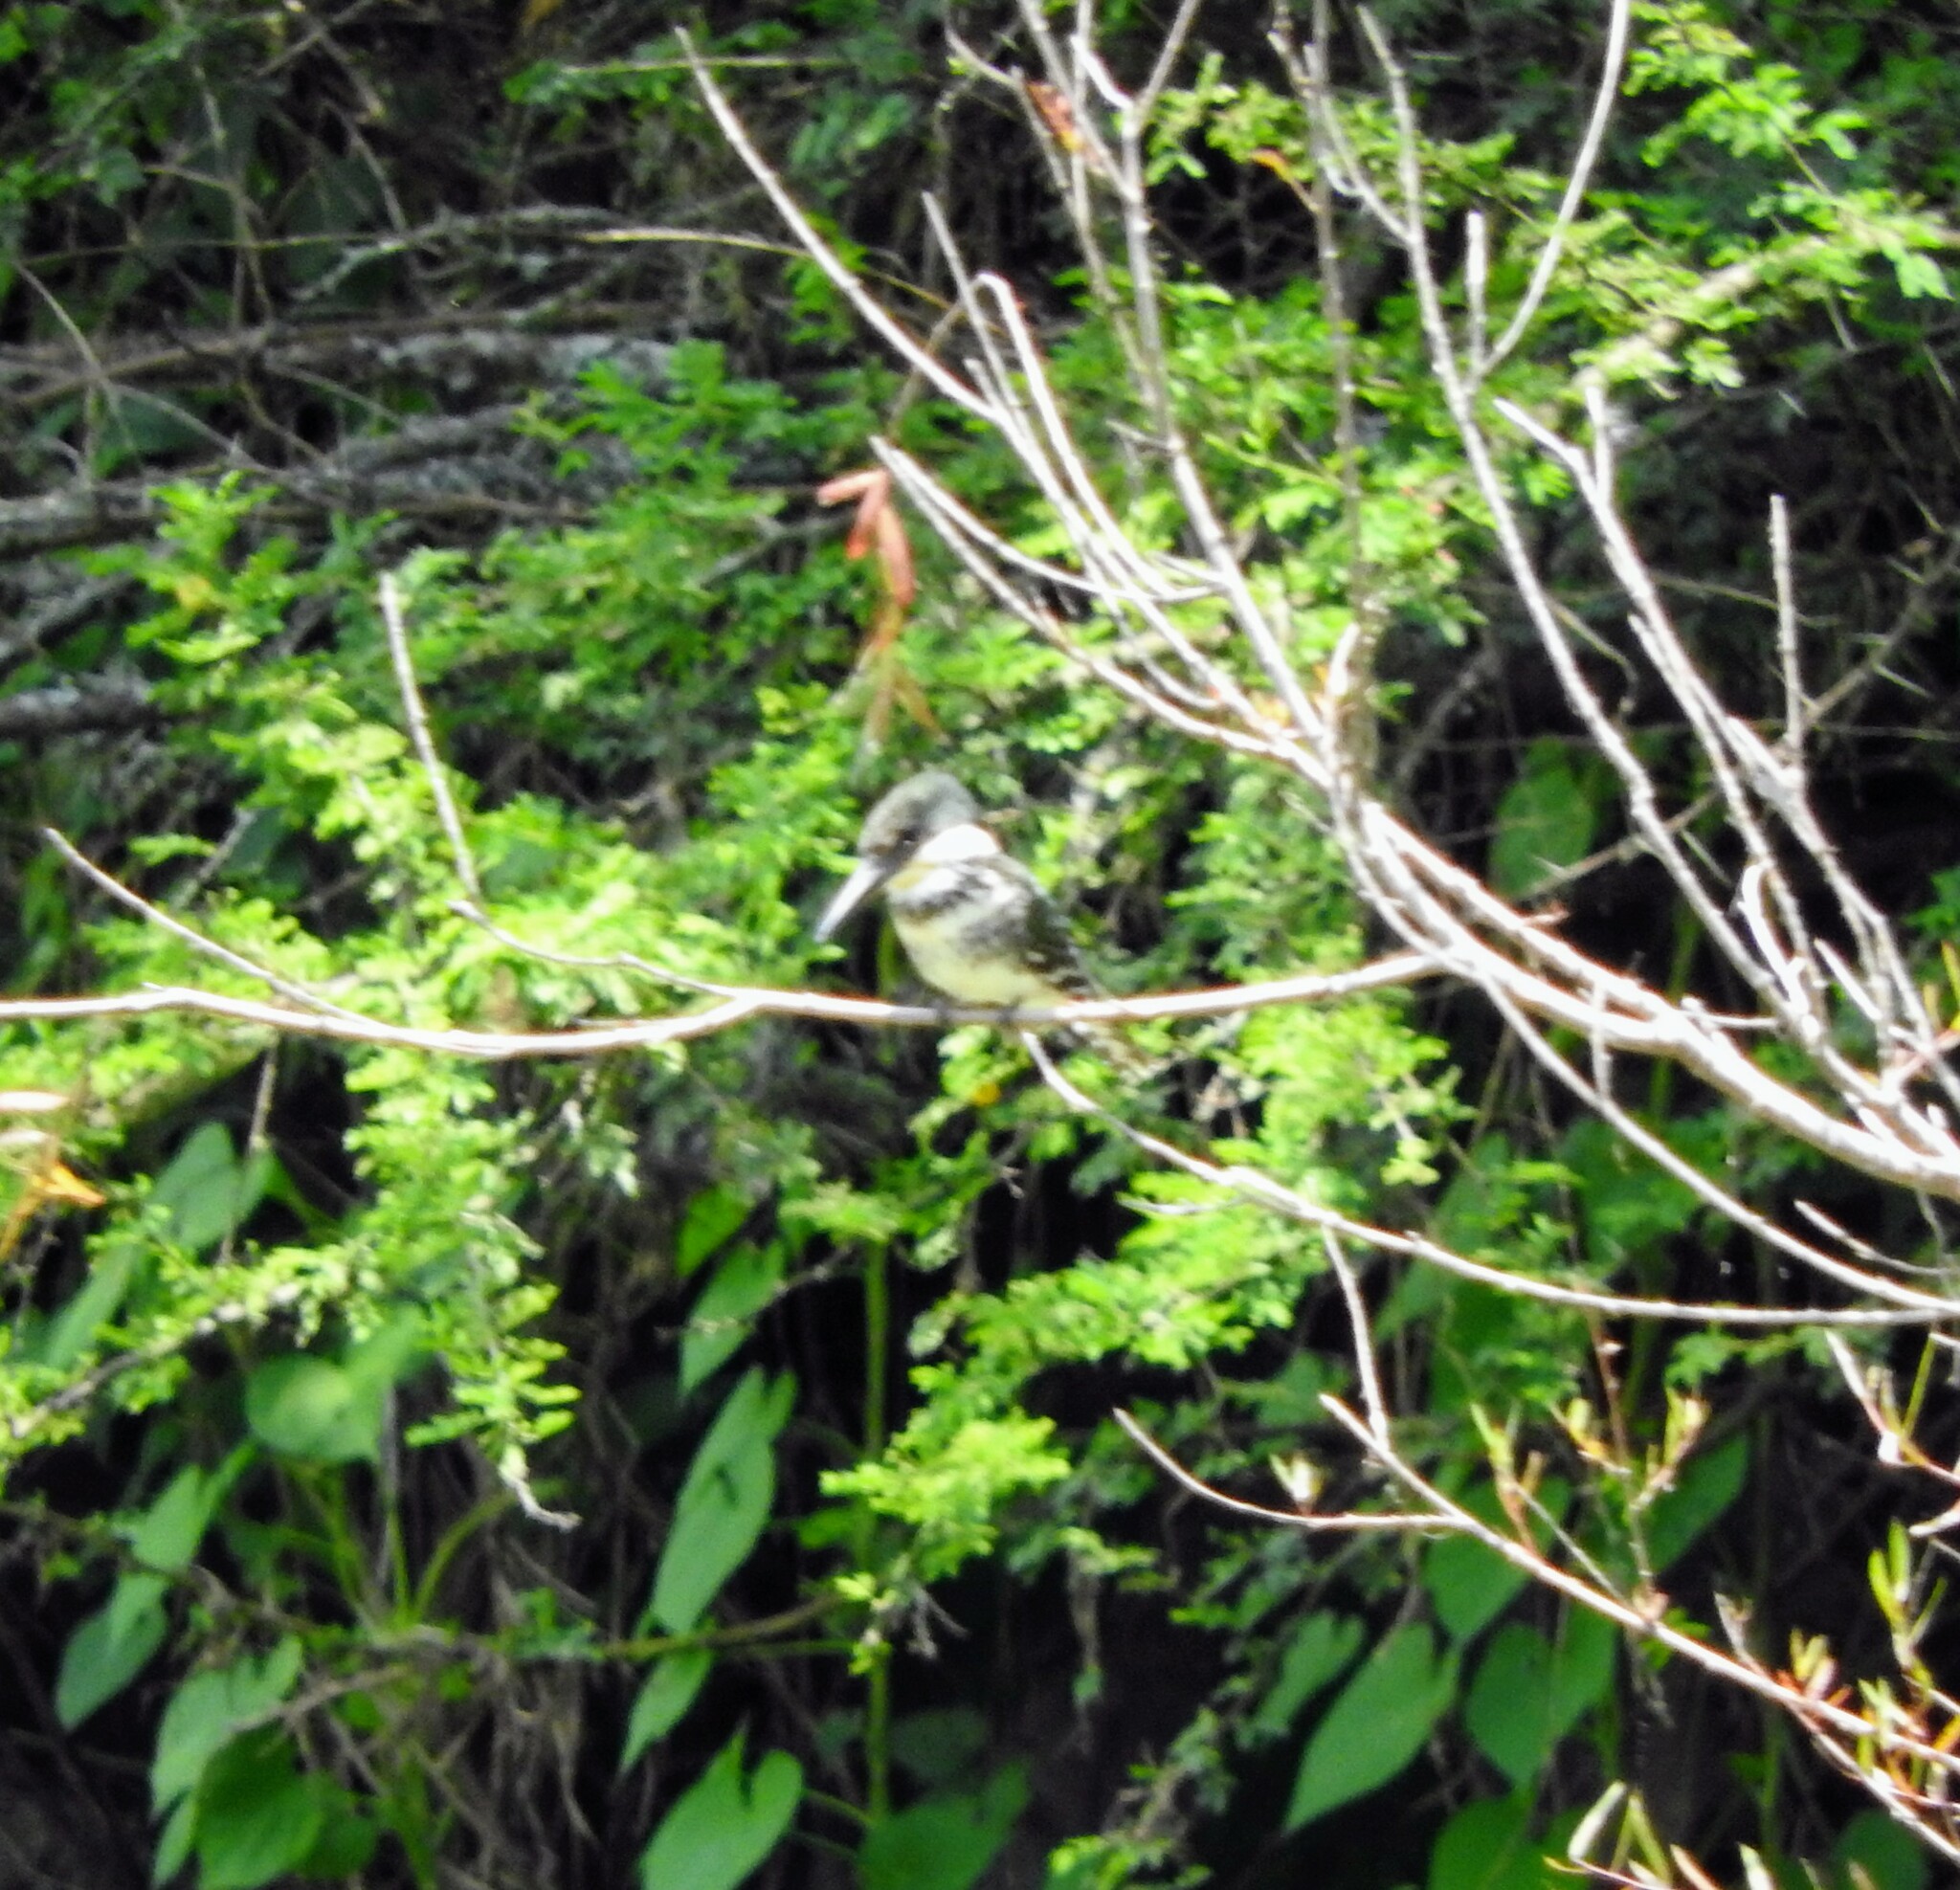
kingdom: Animalia
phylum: Chordata
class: Aves
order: Coraciiformes
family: Alcedinidae
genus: Chloroceryle
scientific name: Chloroceryle americana
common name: Green kingfisher
